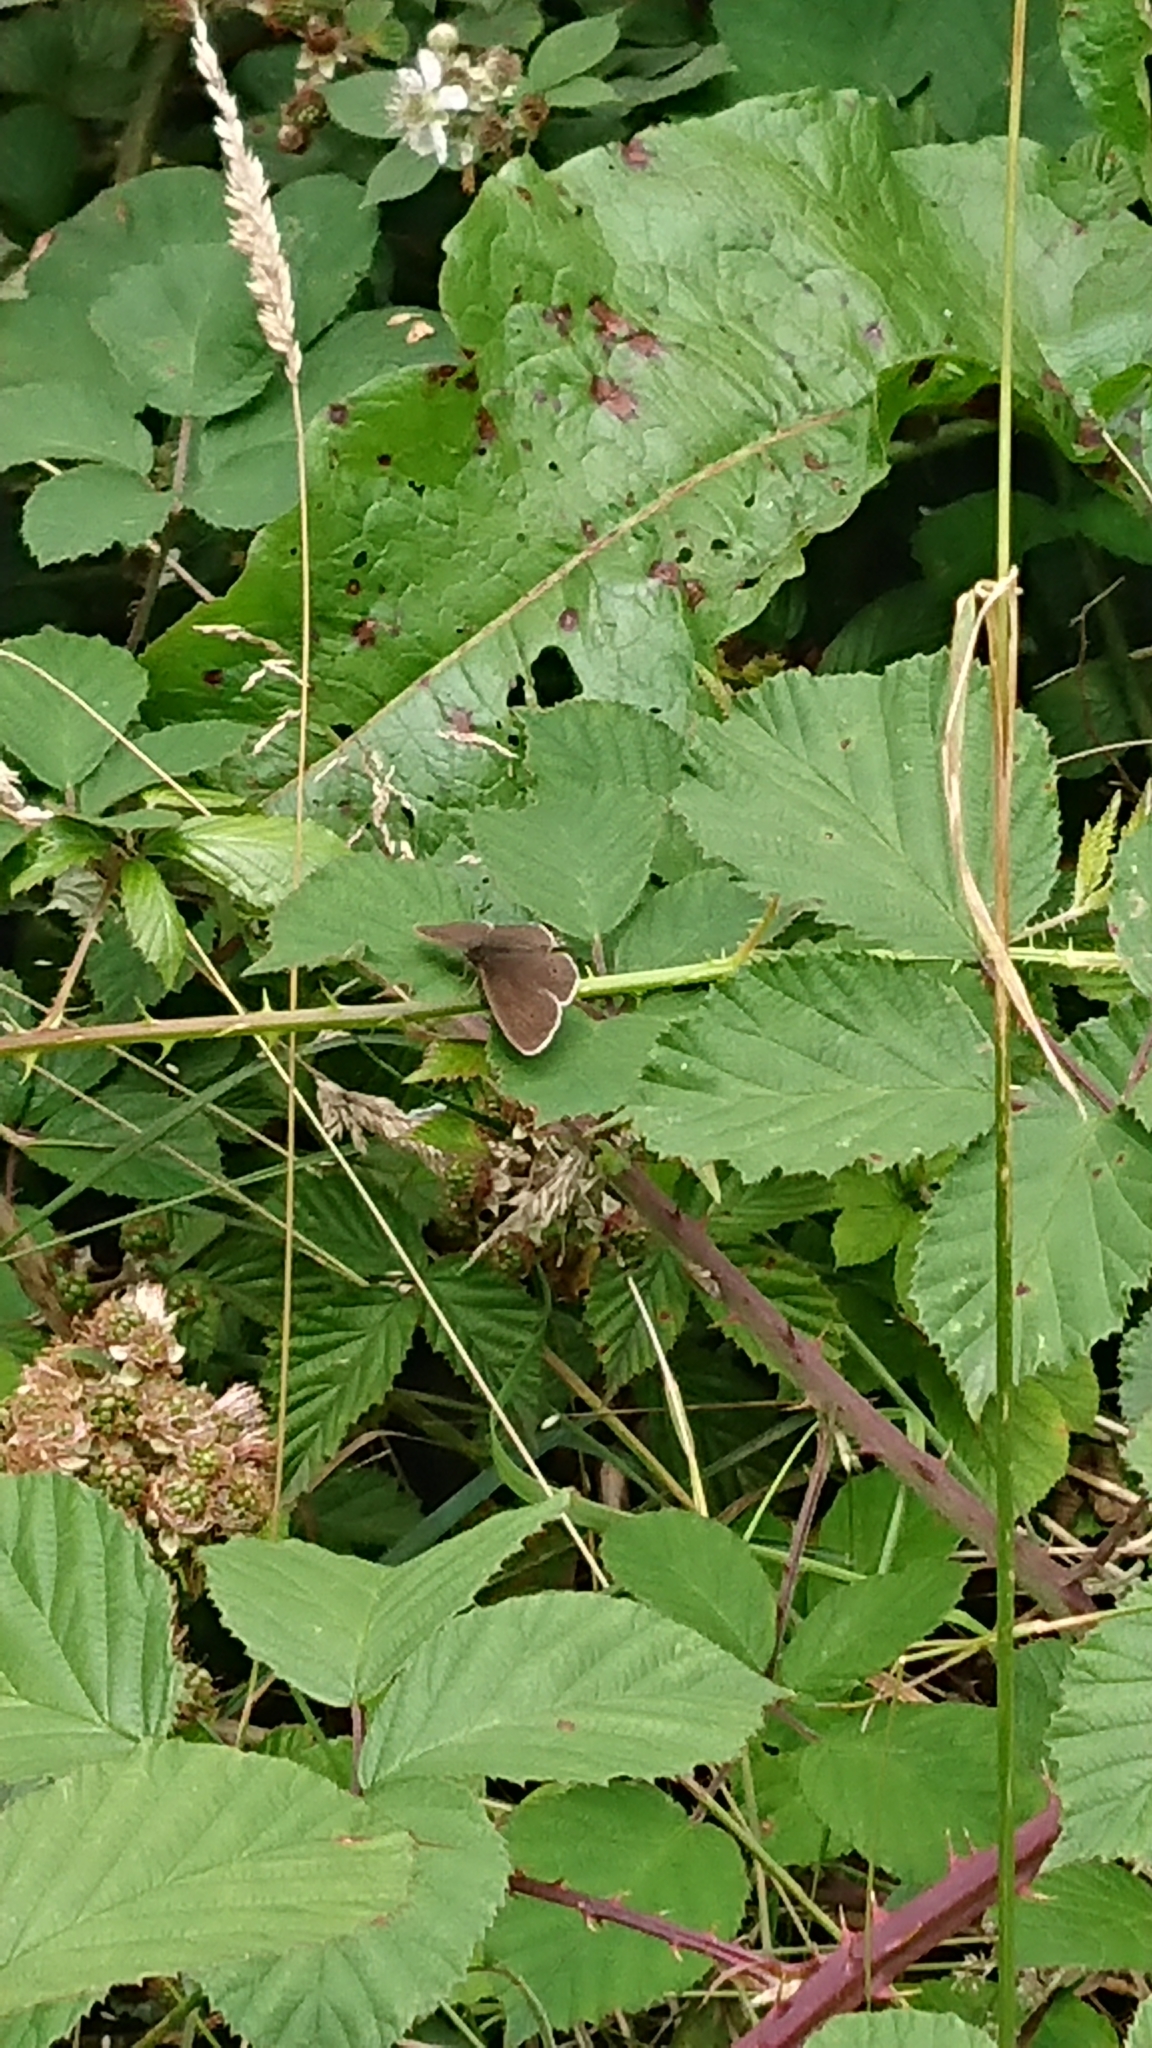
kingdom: Animalia
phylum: Arthropoda
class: Insecta
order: Lepidoptera
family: Nymphalidae
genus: Aphantopus
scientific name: Aphantopus hyperantus
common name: Ringlet
